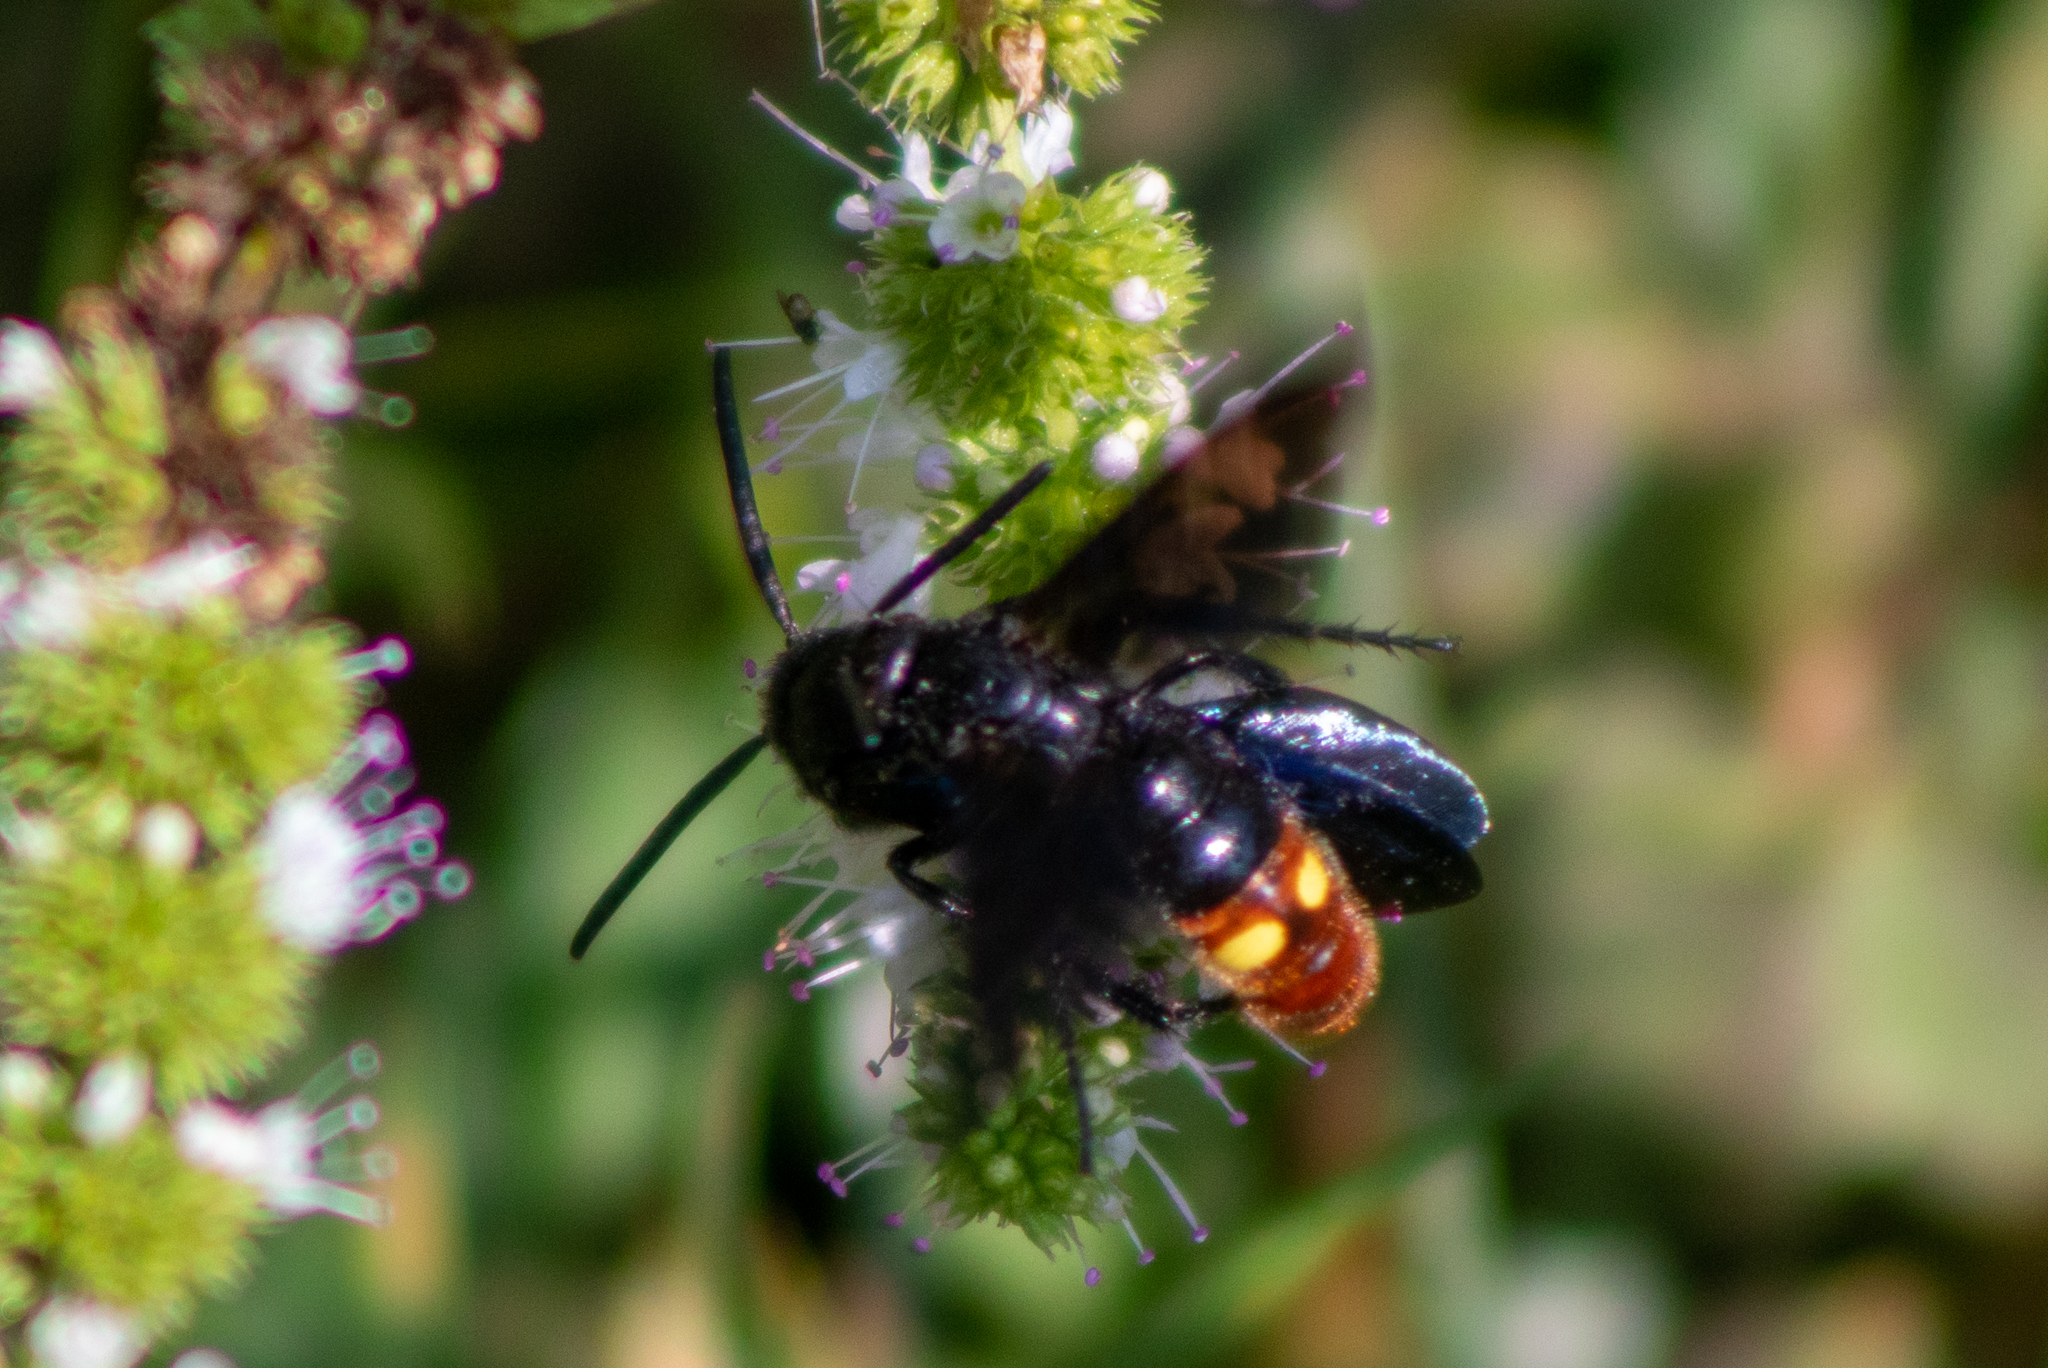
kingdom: Animalia
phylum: Arthropoda
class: Insecta
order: Hymenoptera
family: Scoliidae
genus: Scolia
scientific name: Scolia dubia
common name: Blue-winged scoliid wasp
